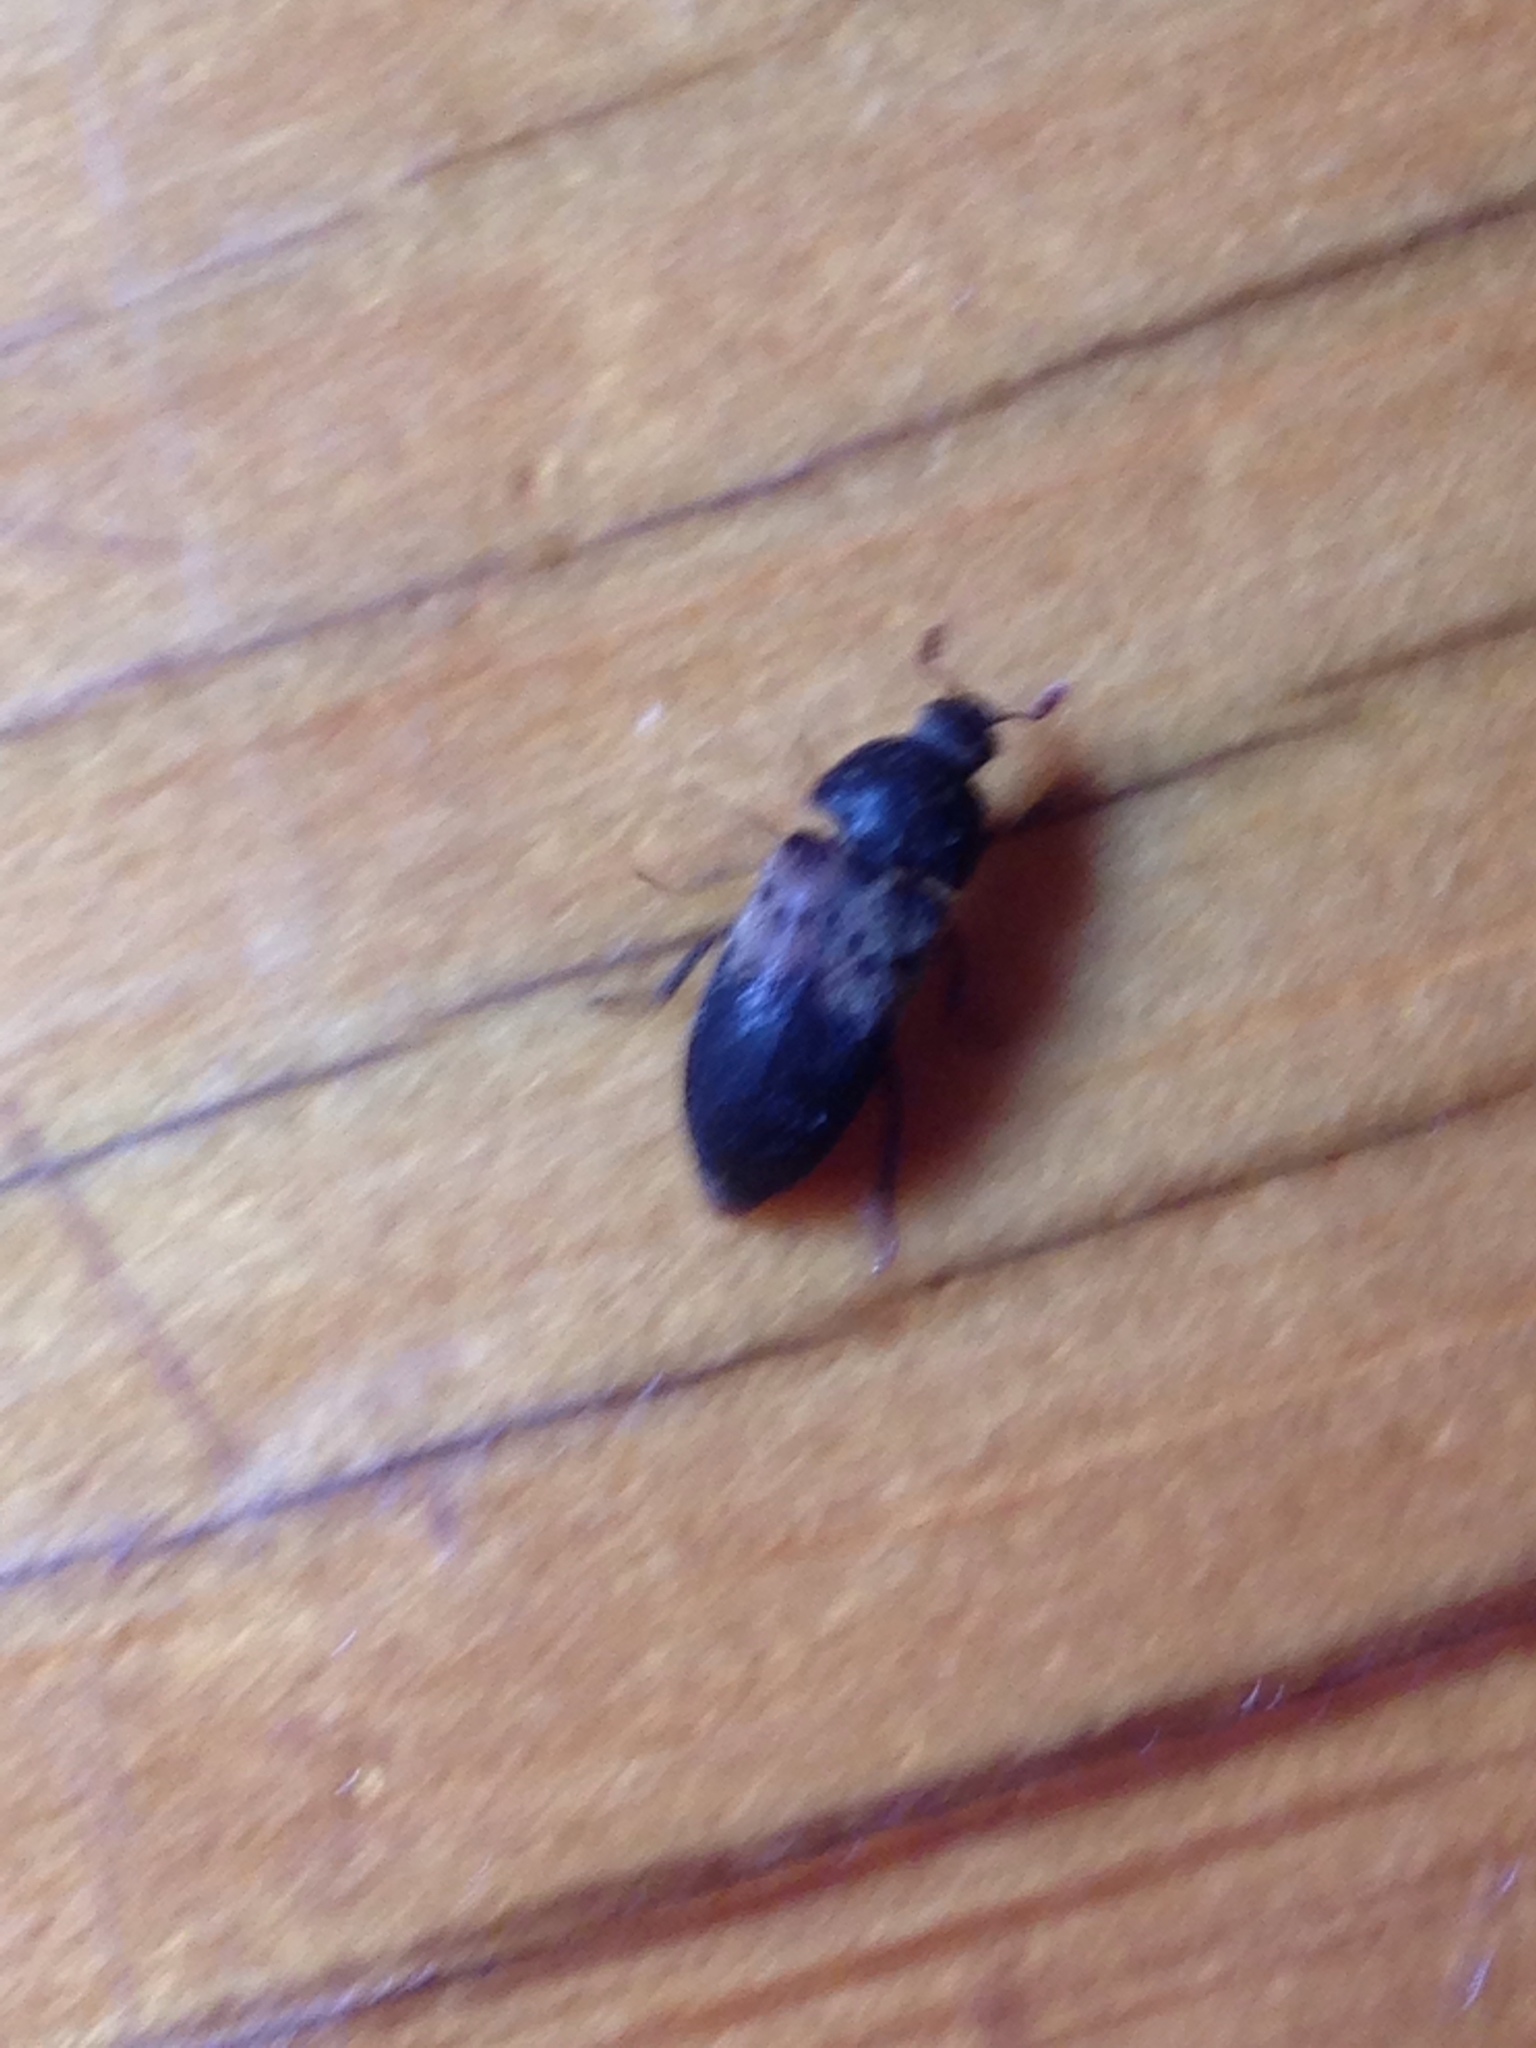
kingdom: Animalia
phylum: Arthropoda
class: Insecta
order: Coleoptera
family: Dermestidae
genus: Dermestes
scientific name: Dermestes lardarius
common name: Larder beetle
